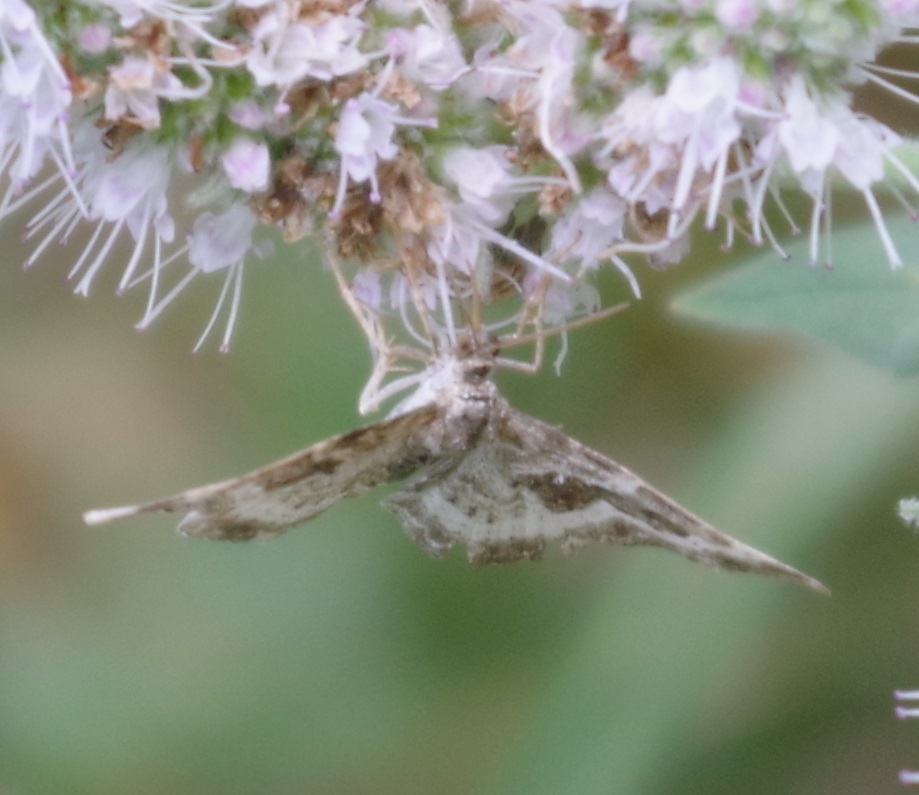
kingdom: Animalia
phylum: Arthropoda
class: Insecta
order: Lepidoptera
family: Geometridae
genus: Epirrhoe
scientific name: Epirrhoe alternata
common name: Common carpet
